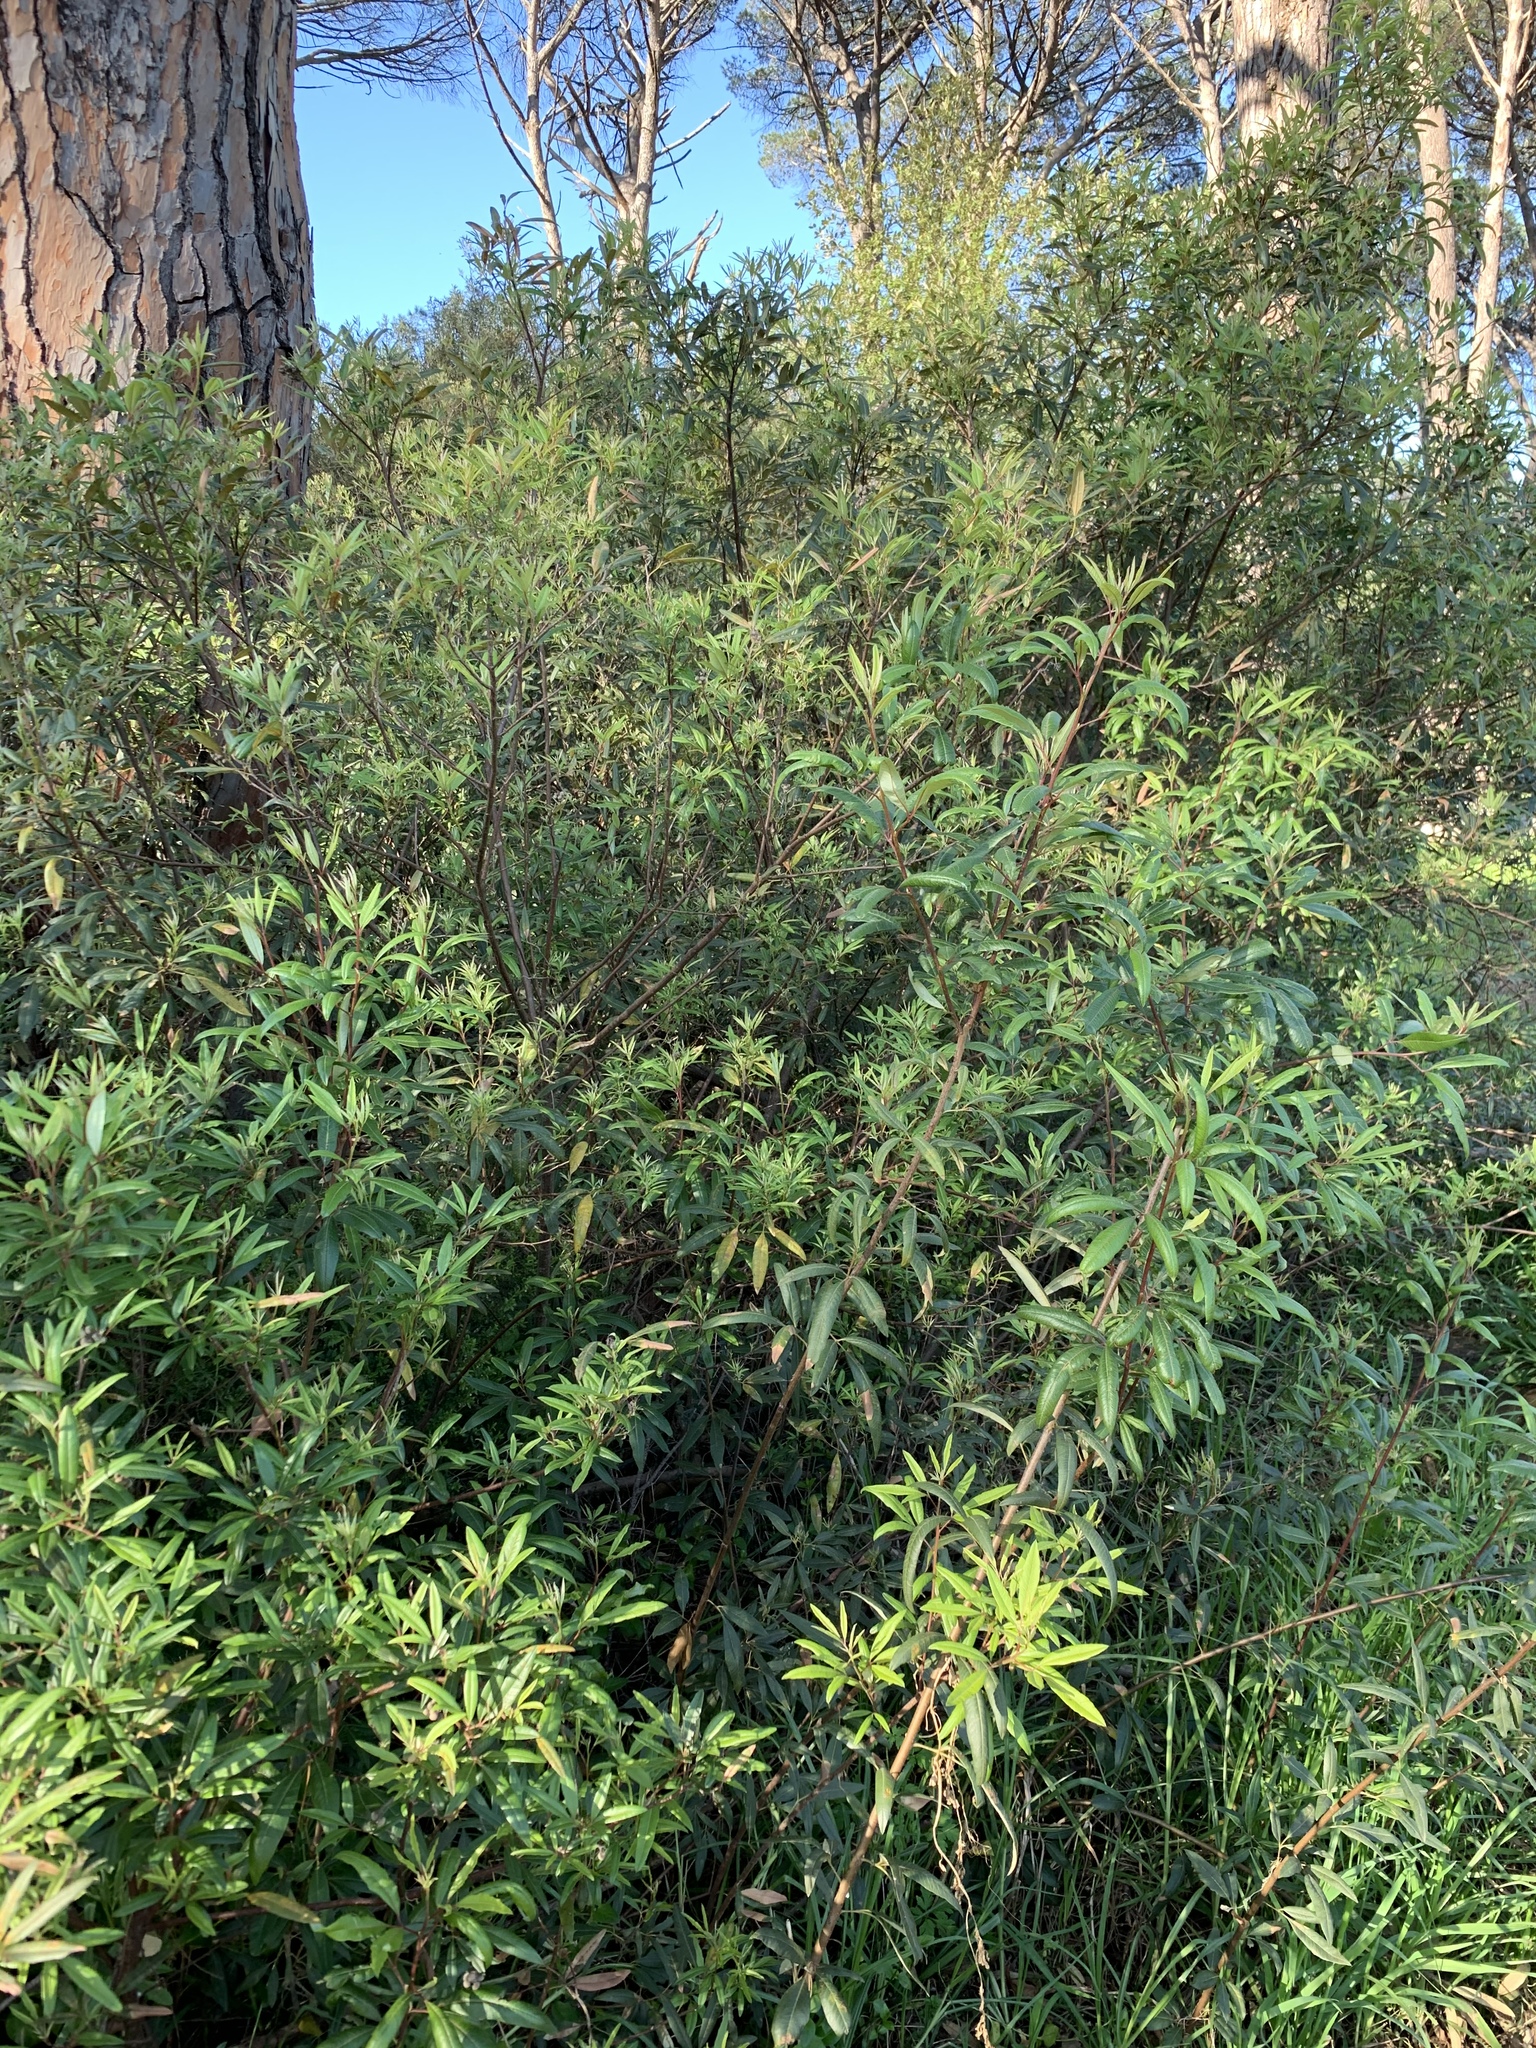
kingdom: Plantae
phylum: Tracheophyta
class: Magnoliopsida
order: Sapindales
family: Anacardiaceae
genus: Searsia
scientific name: Searsia angustifolia
